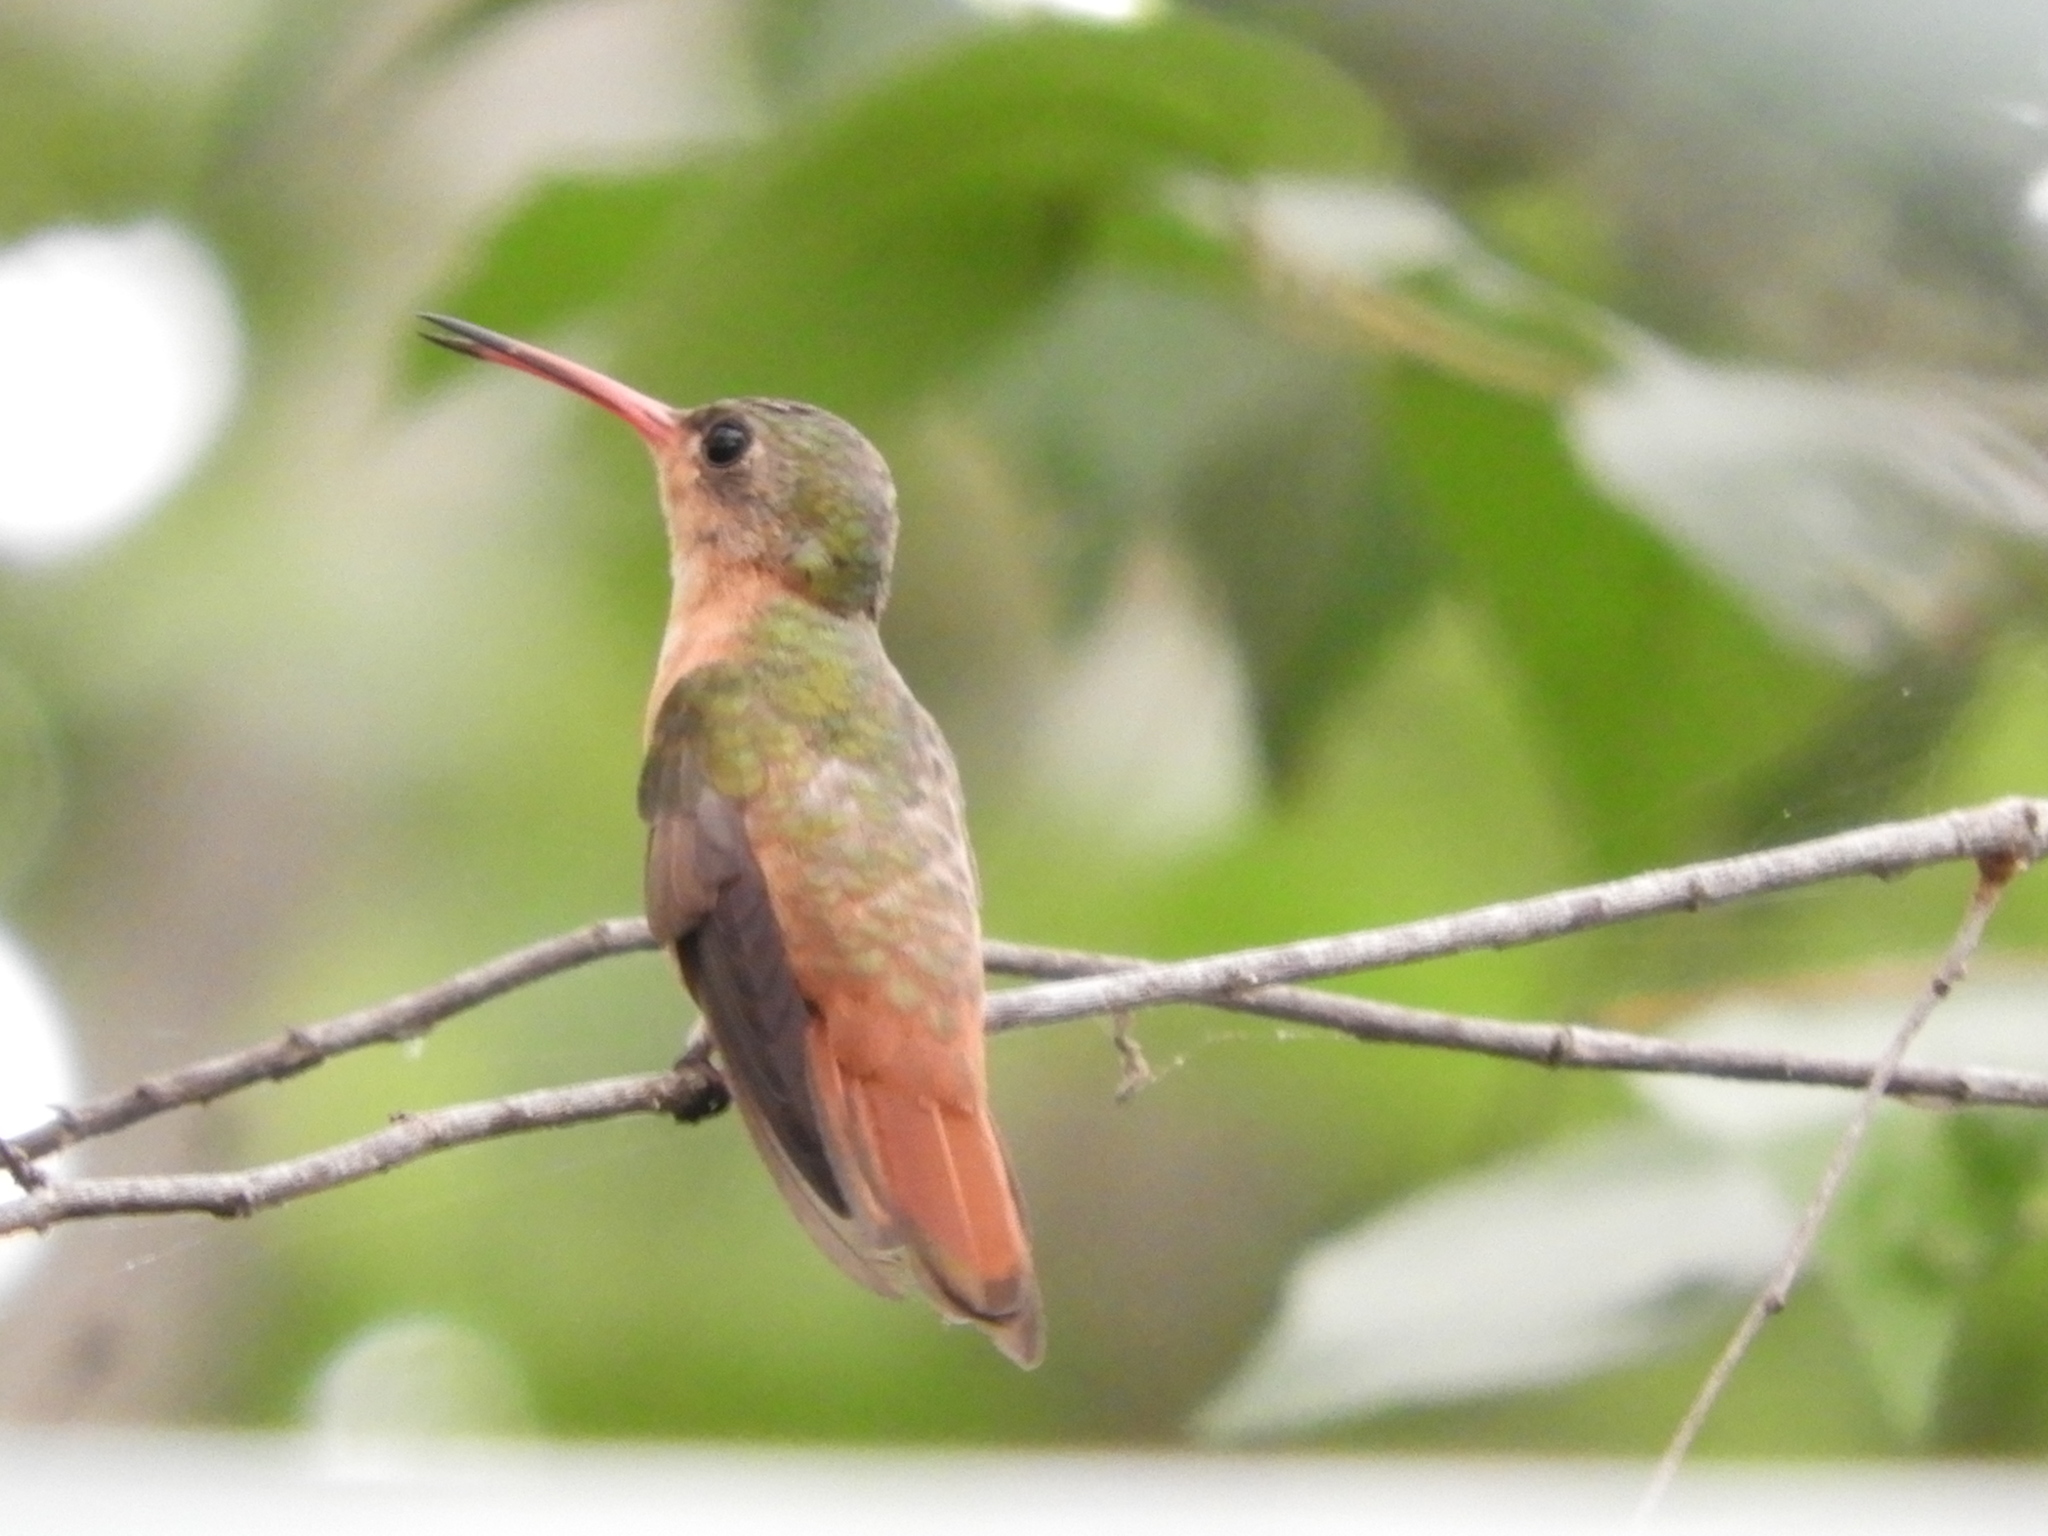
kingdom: Animalia
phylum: Chordata
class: Aves
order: Apodiformes
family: Trochilidae
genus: Amazilia
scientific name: Amazilia rutila
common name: Cinnamon hummingbird
